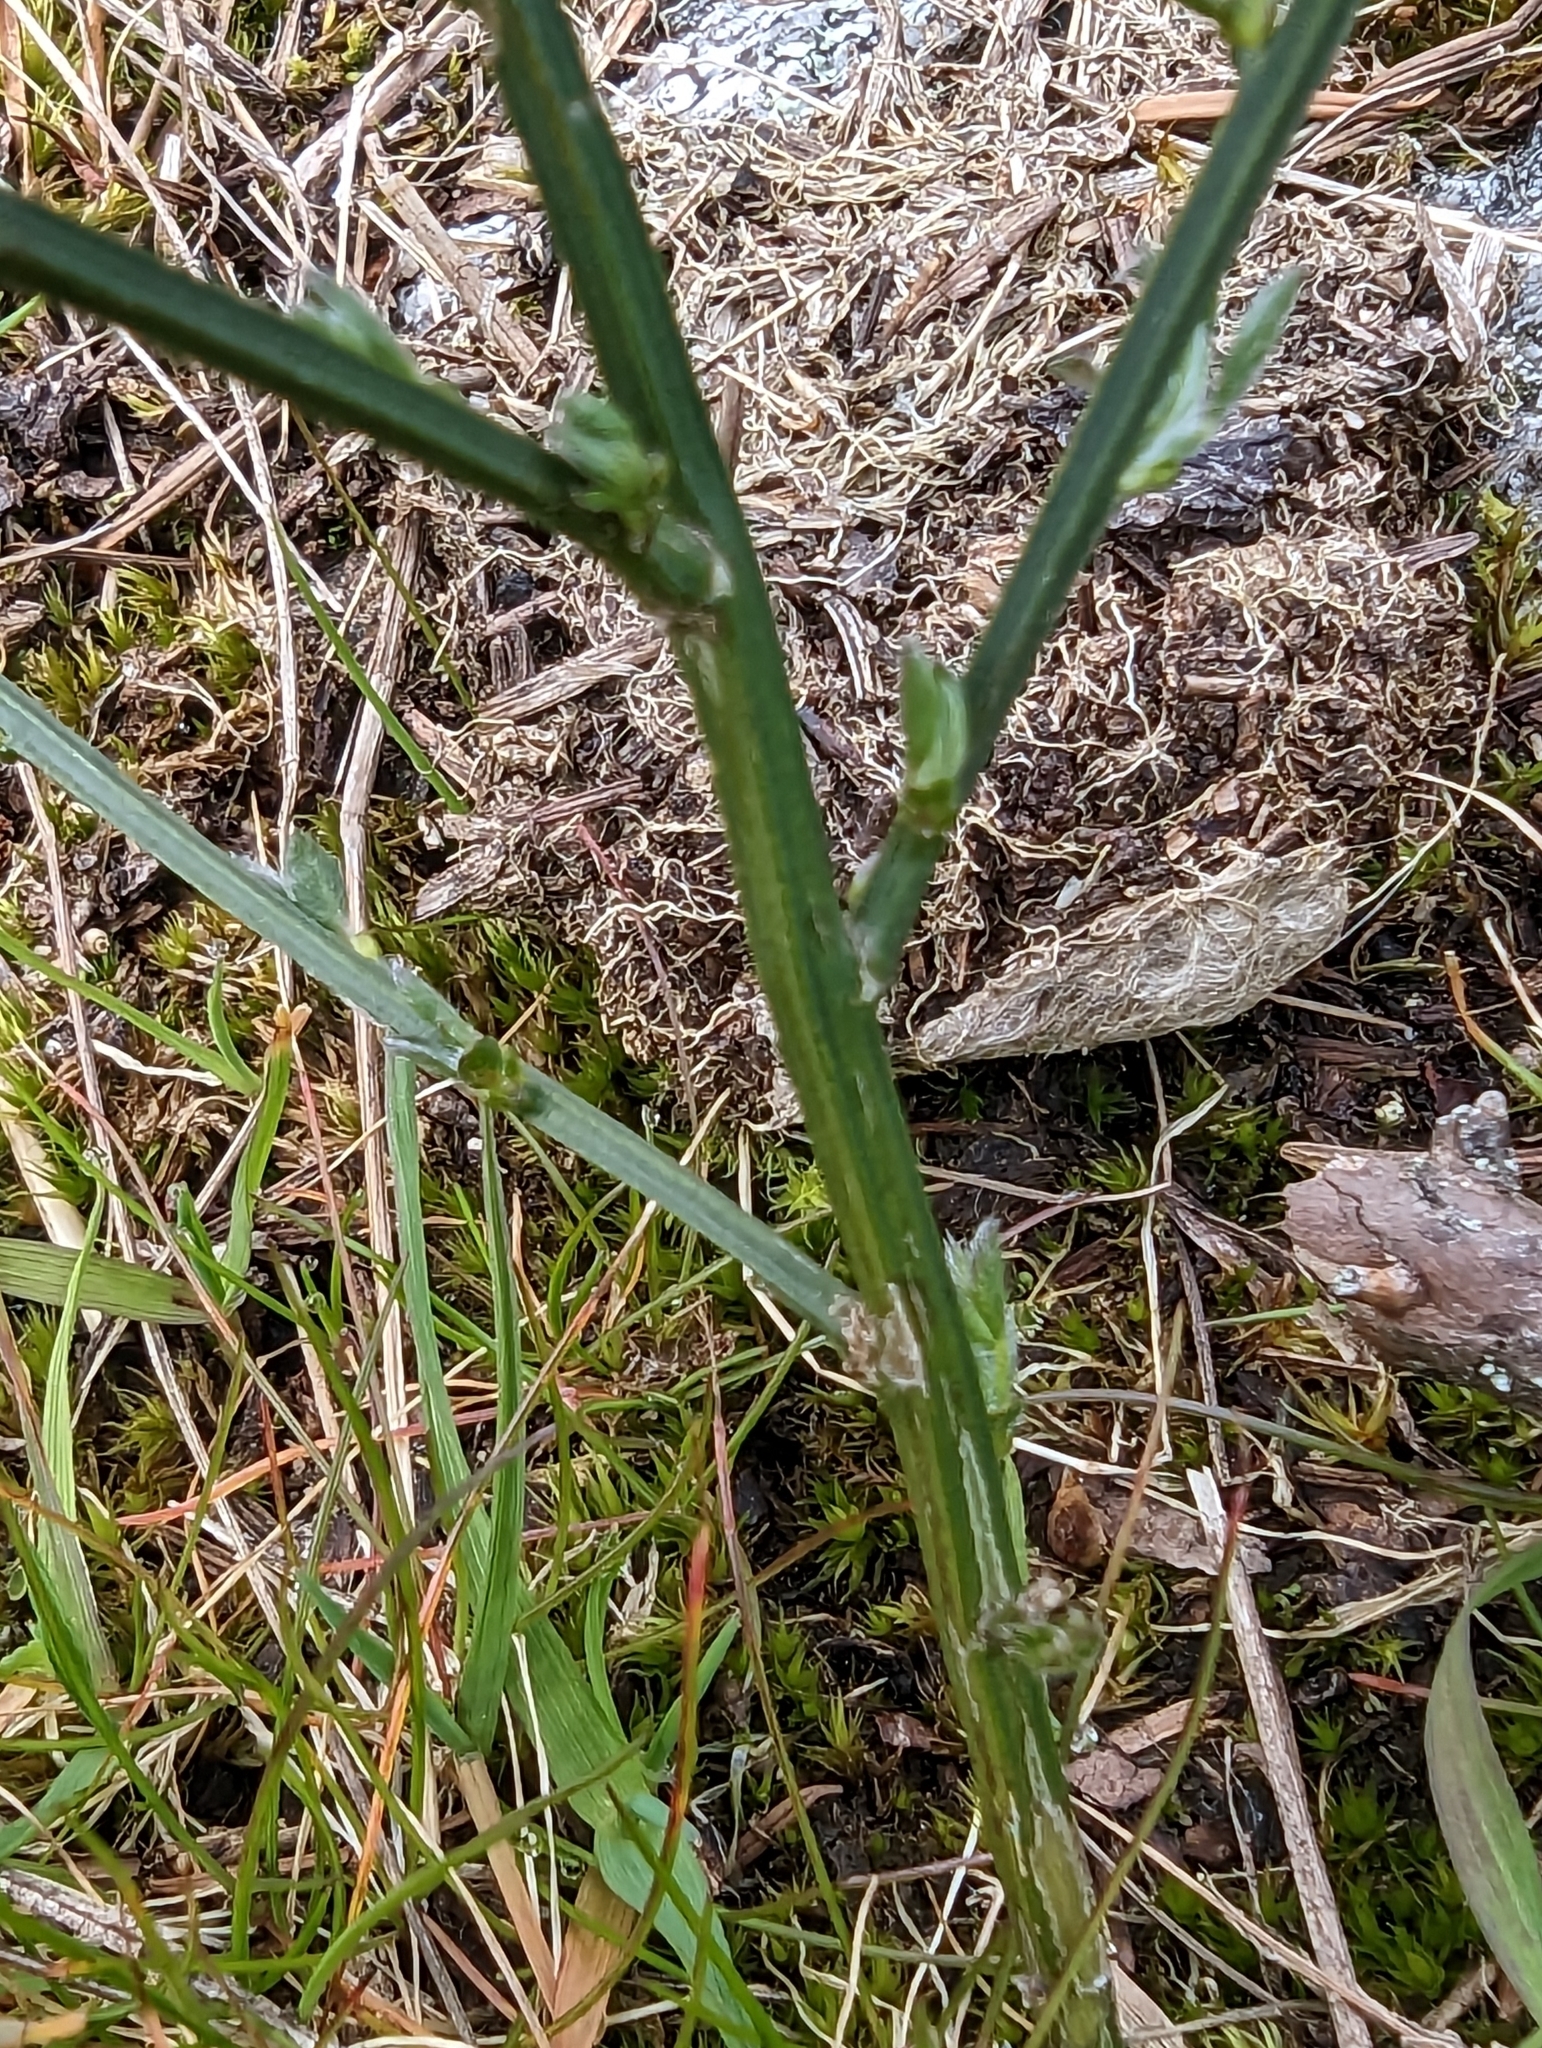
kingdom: Plantae
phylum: Tracheophyta
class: Magnoliopsida
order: Fabales
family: Fabaceae
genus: Cytisus
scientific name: Cytisus scoparius
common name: Scotch broom
